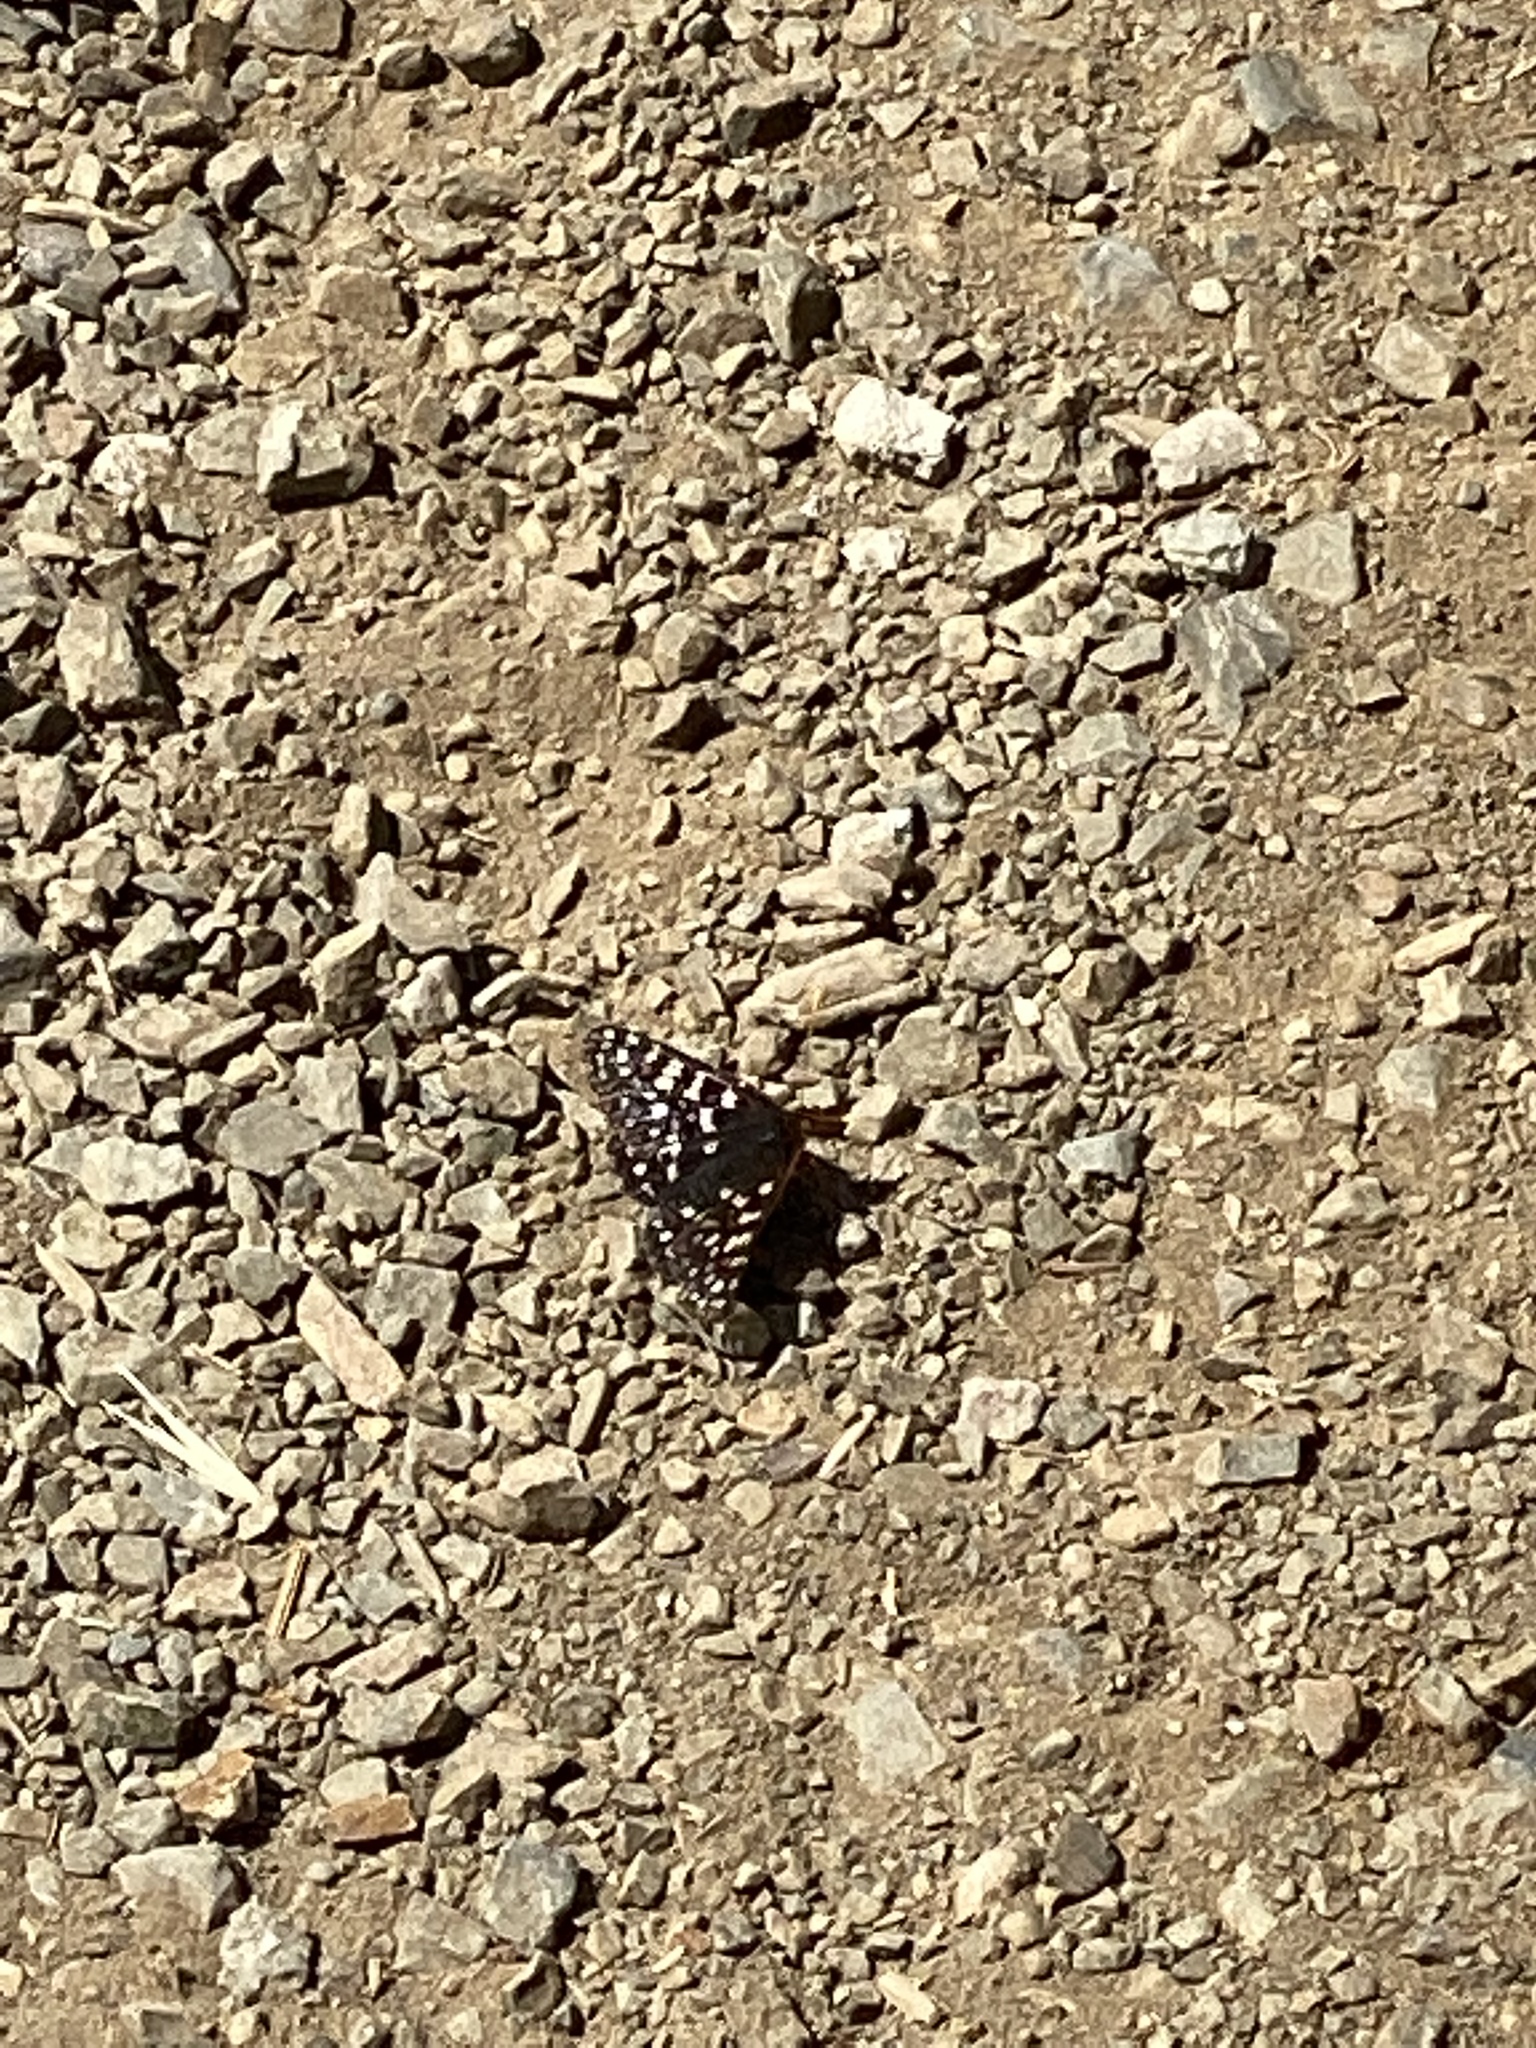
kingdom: Animalia
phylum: Arthropoda
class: Insecta
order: Lepidoptera
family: Nymphalidae
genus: Occidryas
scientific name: Occidryas chalcedona
